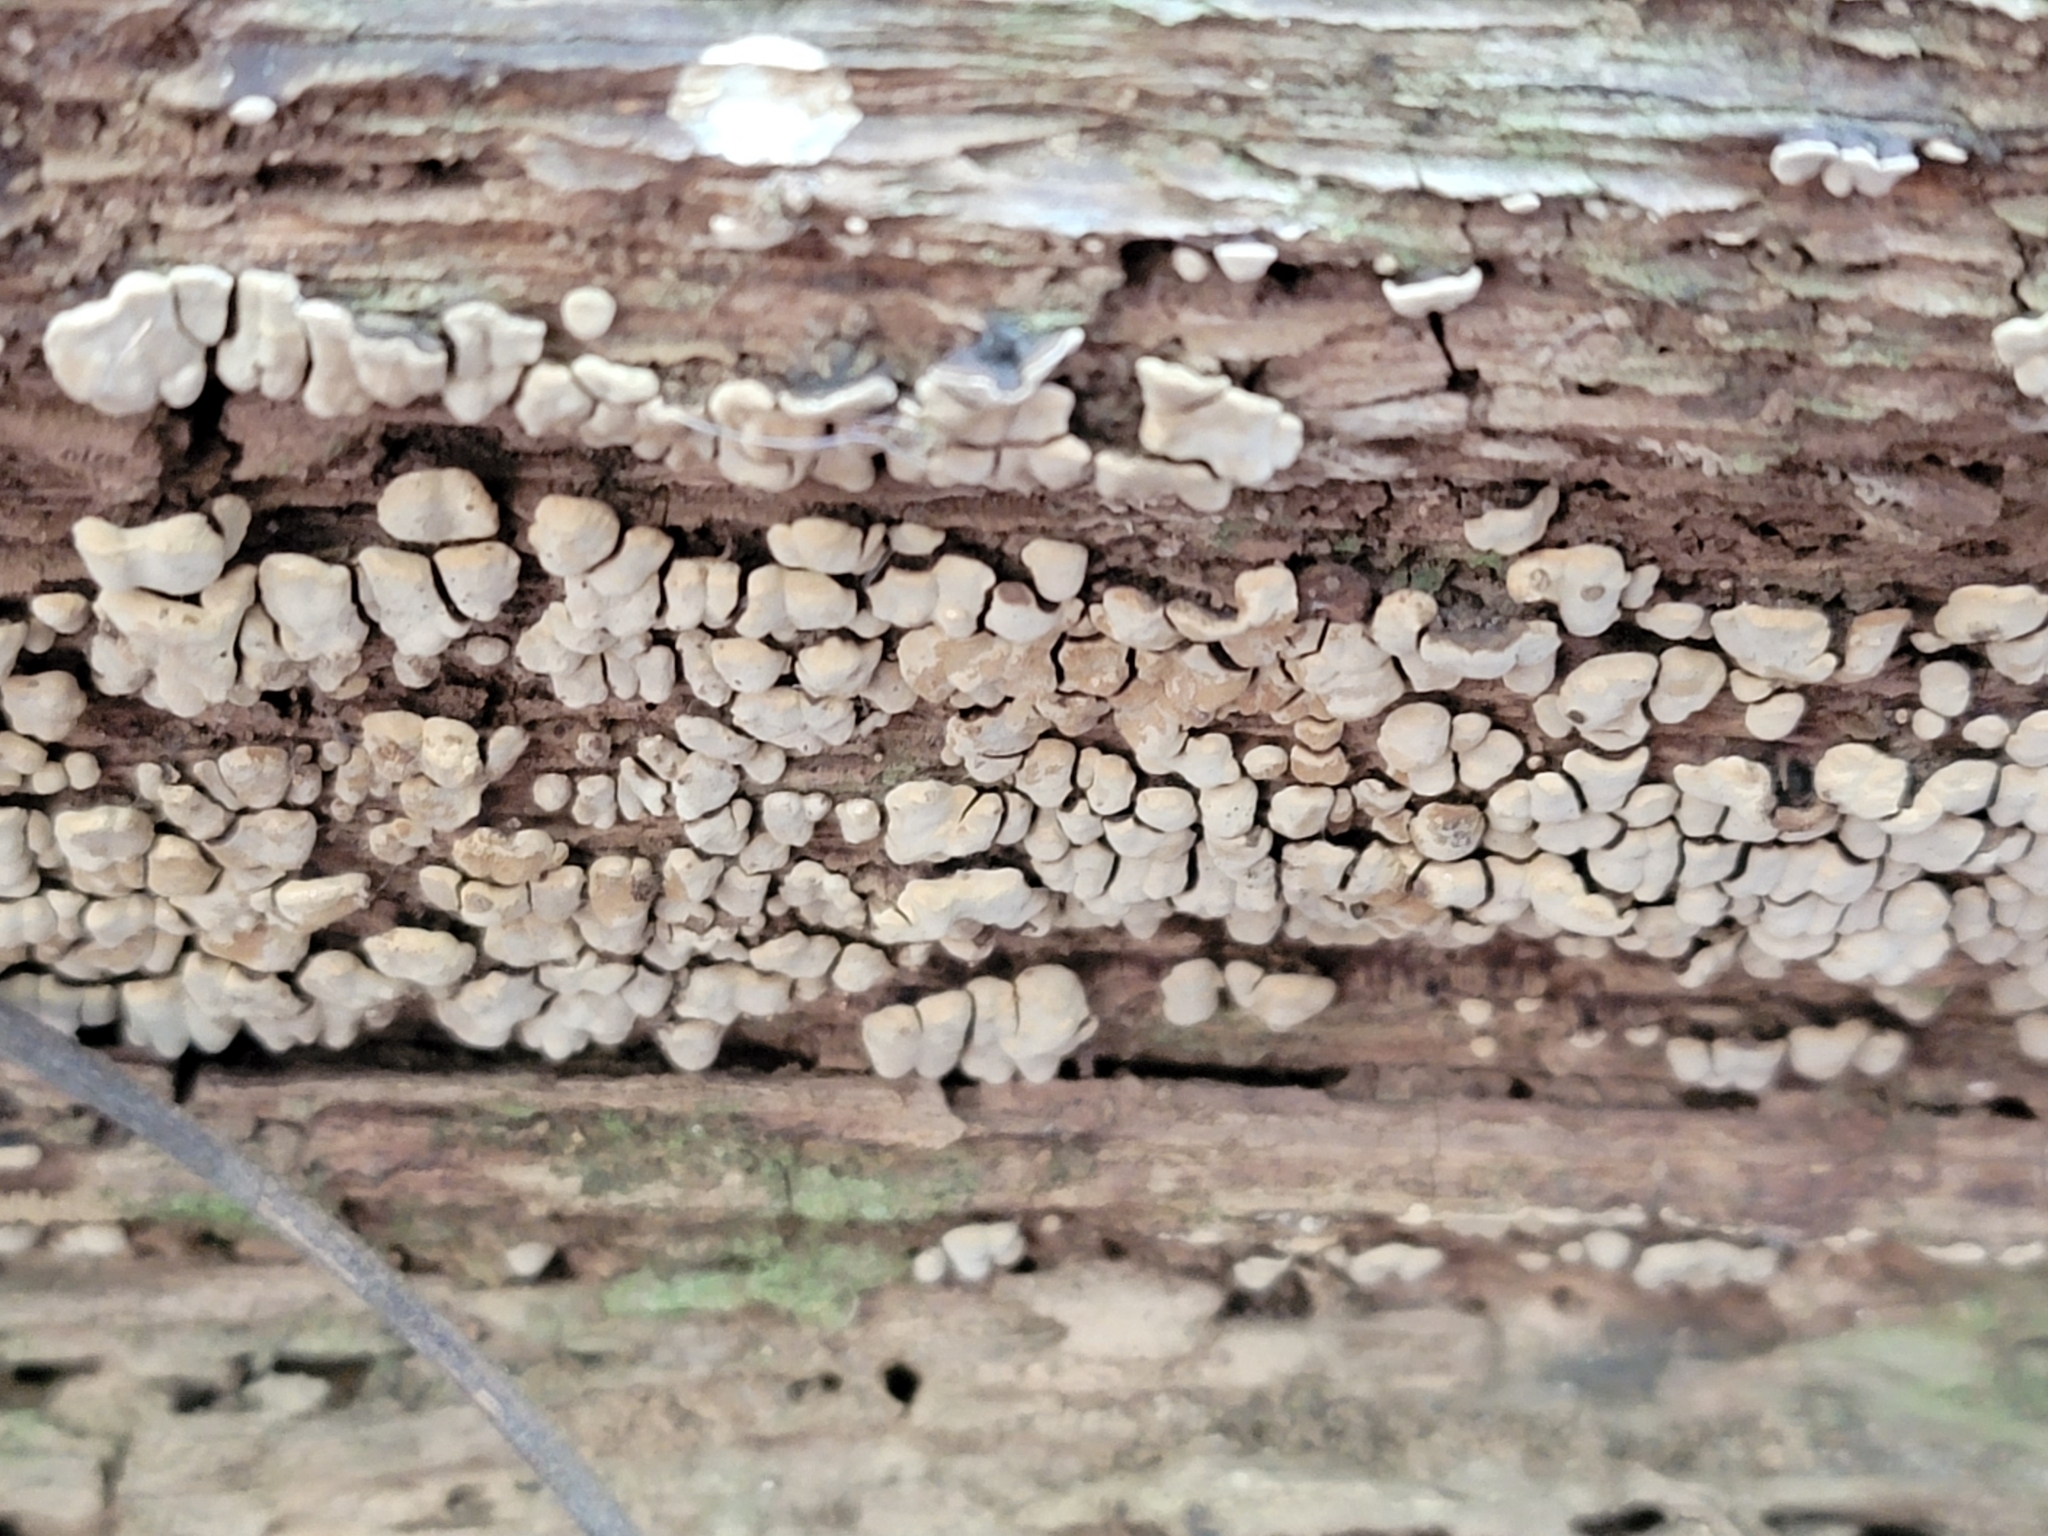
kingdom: Fungi
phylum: Basidiomycota
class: Agaricomycetes
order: Russulales
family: Stereaceae
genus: Xylobolus
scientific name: Xylobolus frustulatus
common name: Ceramic parchment
